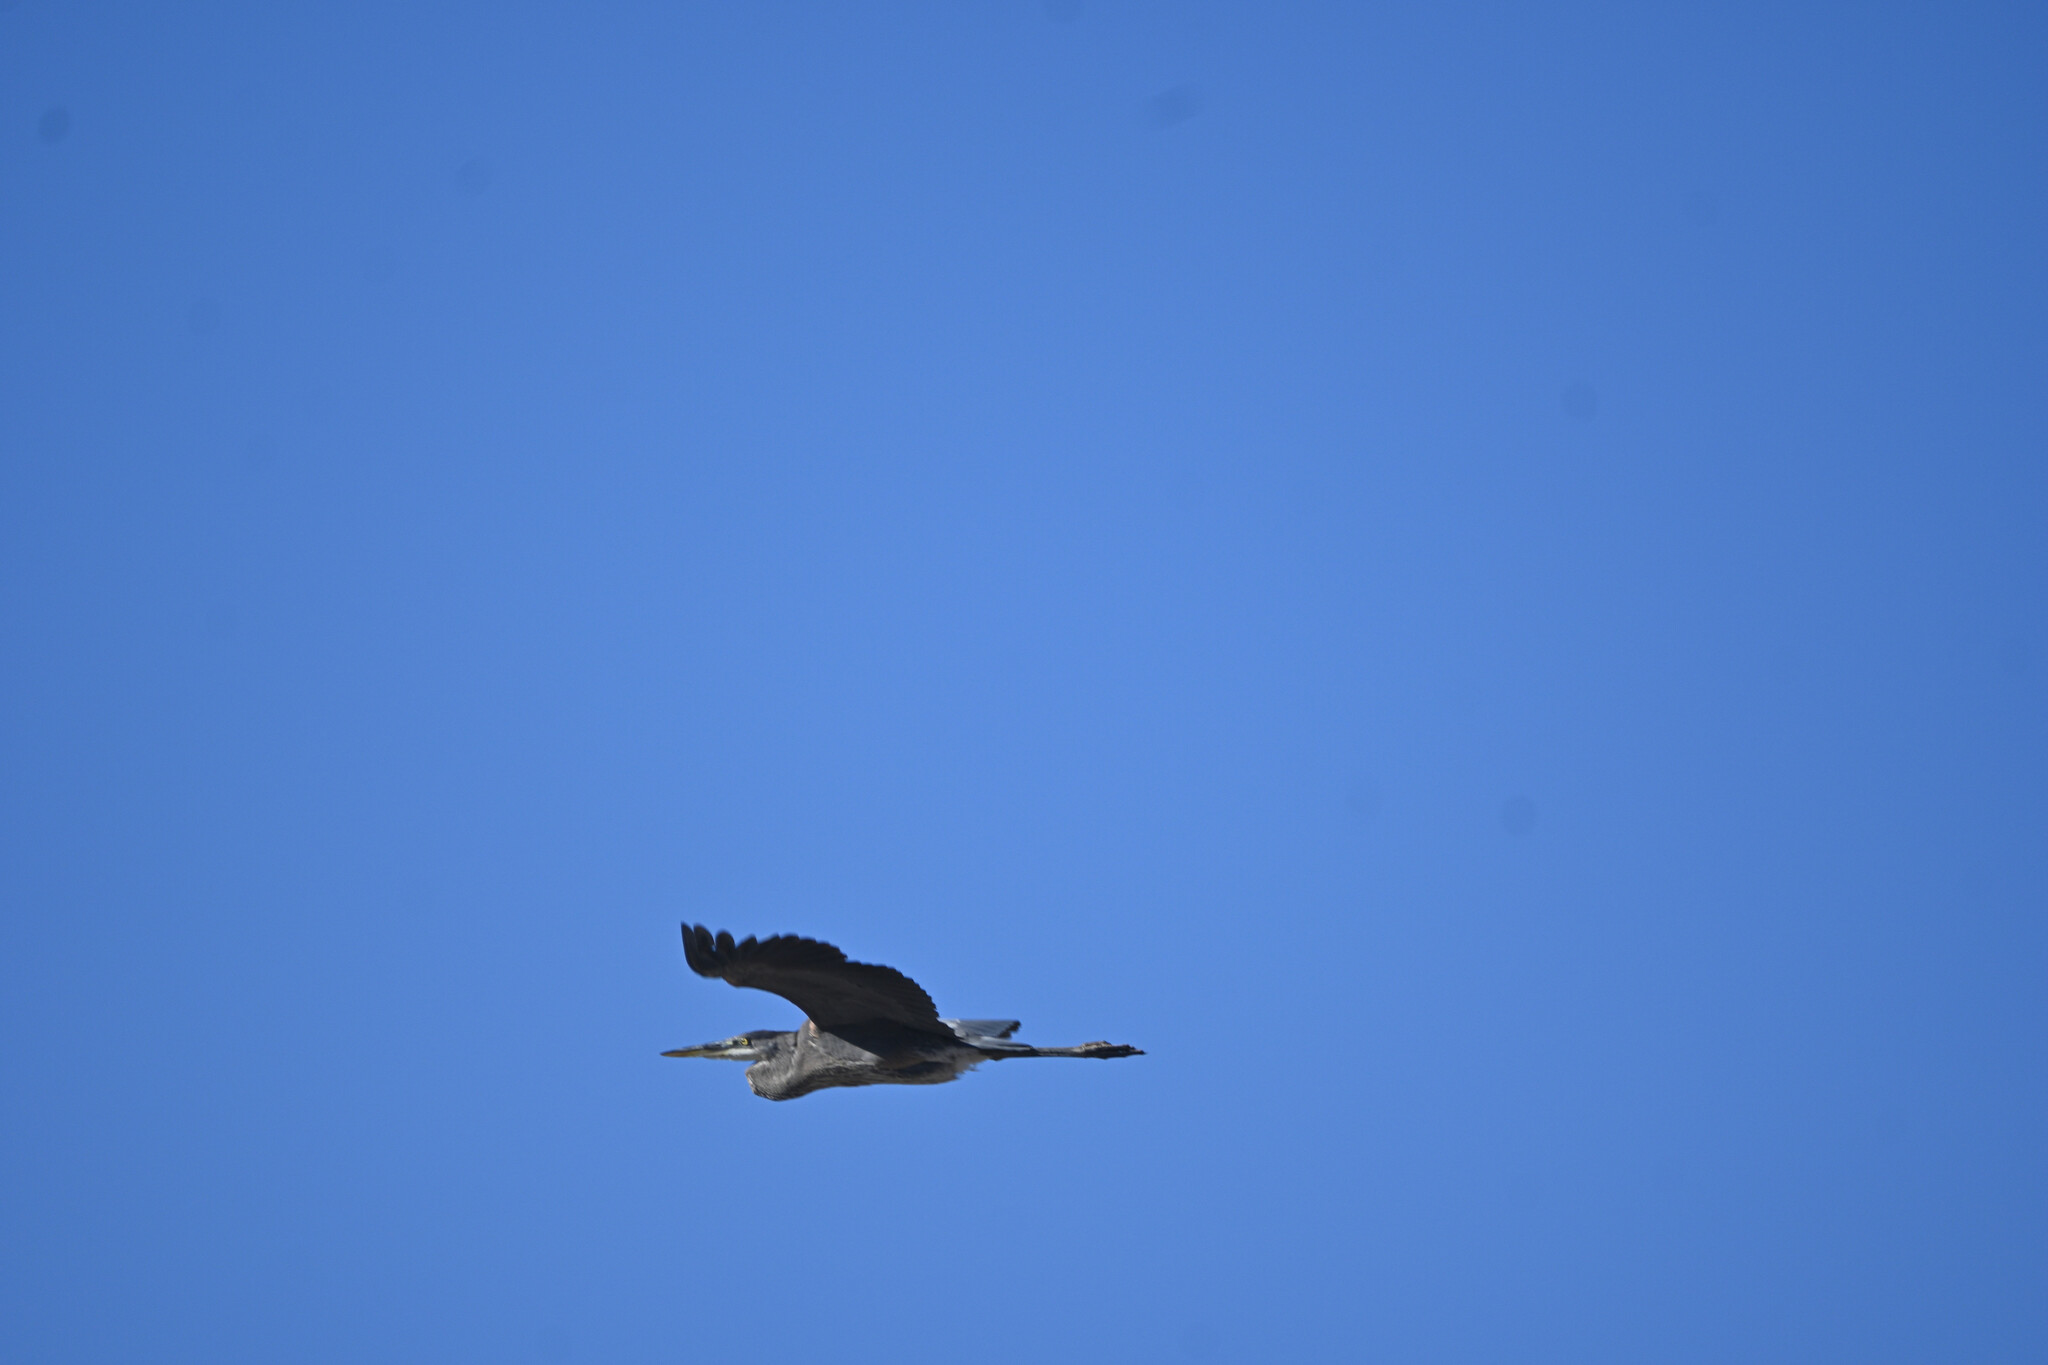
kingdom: Animalia
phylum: Chordata
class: Aves
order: Pelecaniformes
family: Ardeidae
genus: Ardea
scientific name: Ardea herodias
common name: Great blue heron
